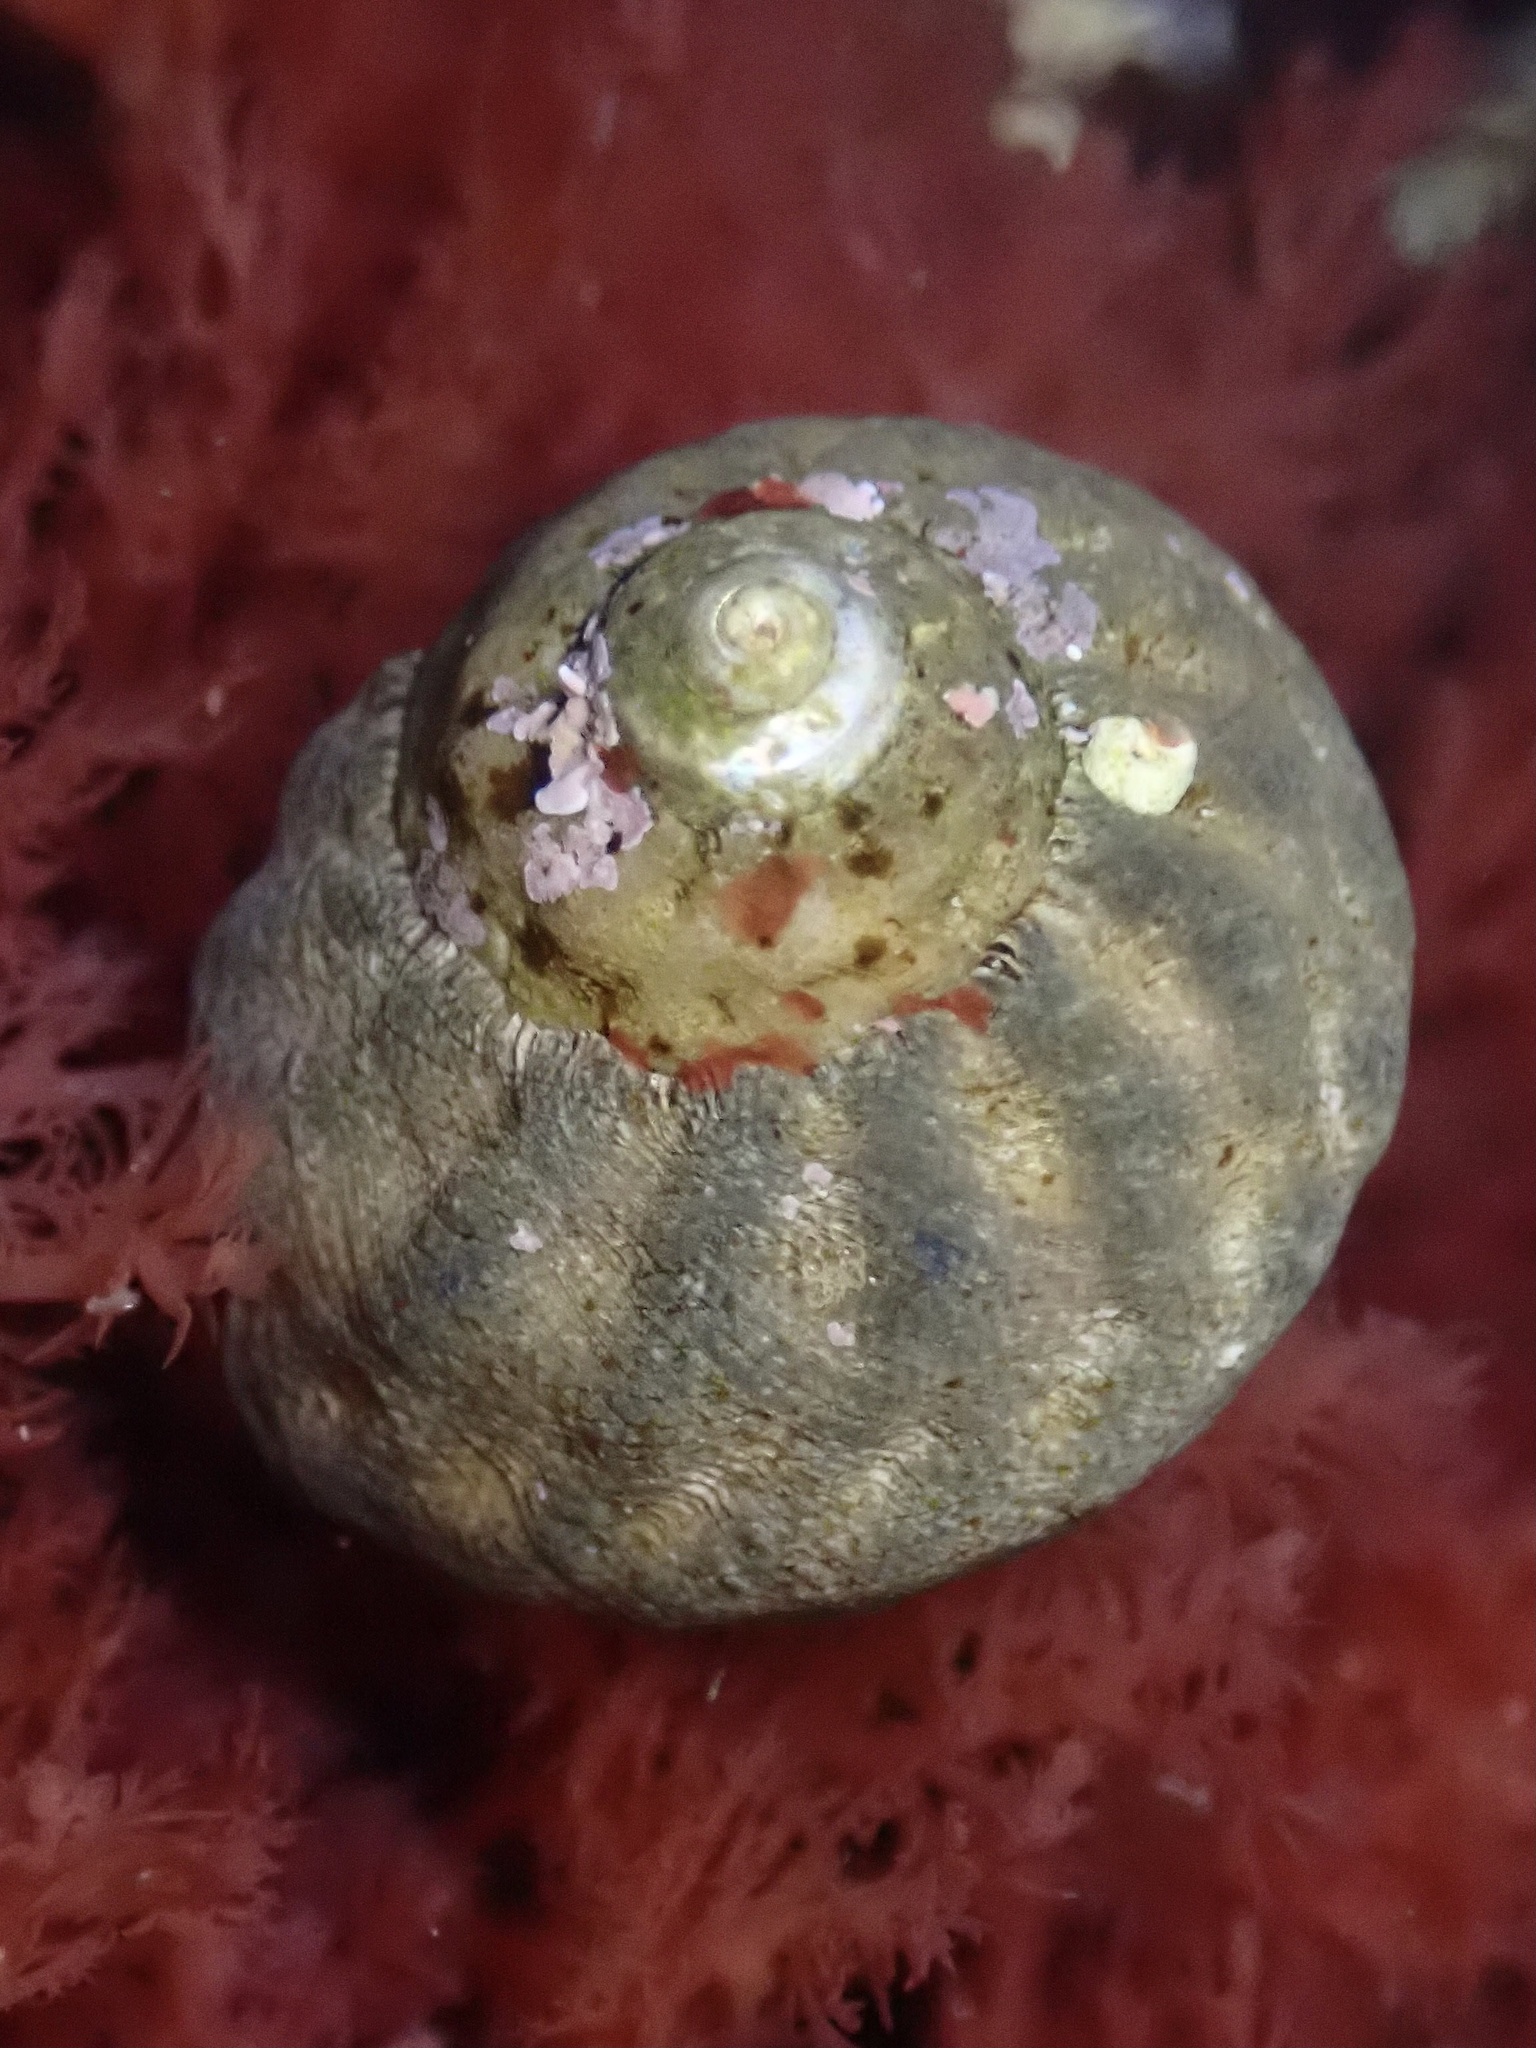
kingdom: Animalia
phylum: Mollusca
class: Gastropoda
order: Trochida
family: Tegulidae
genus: Tegula
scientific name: Tegula aureotincta
